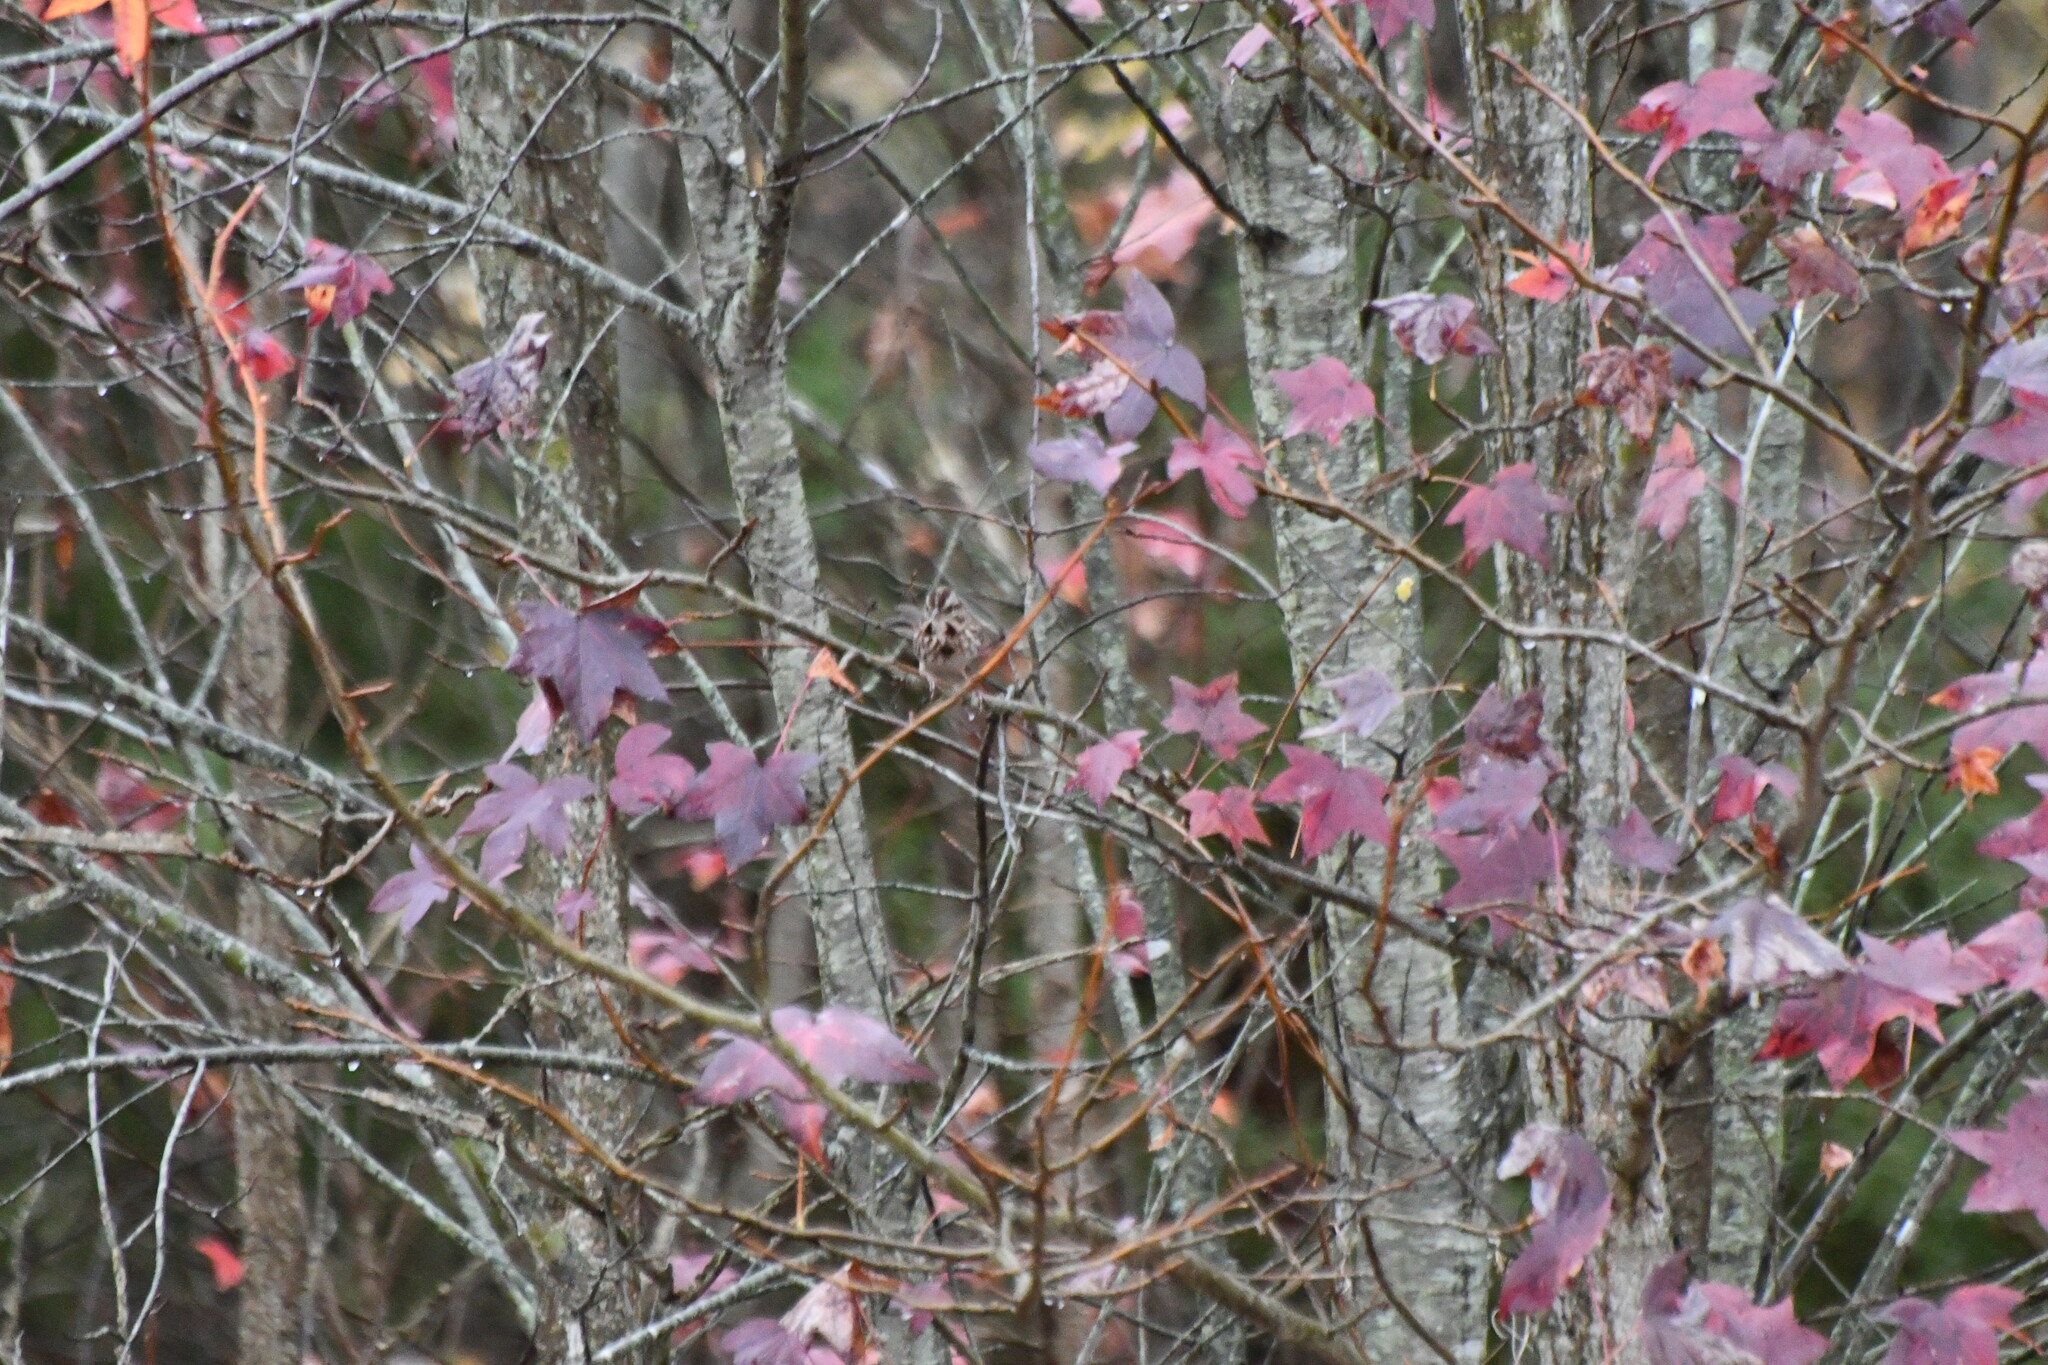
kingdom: Animalia
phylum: Chordata
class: Aves
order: Passeriformes
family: Passerellidae
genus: Melospiza
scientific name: Melospiza melodia
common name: Song sparrow
